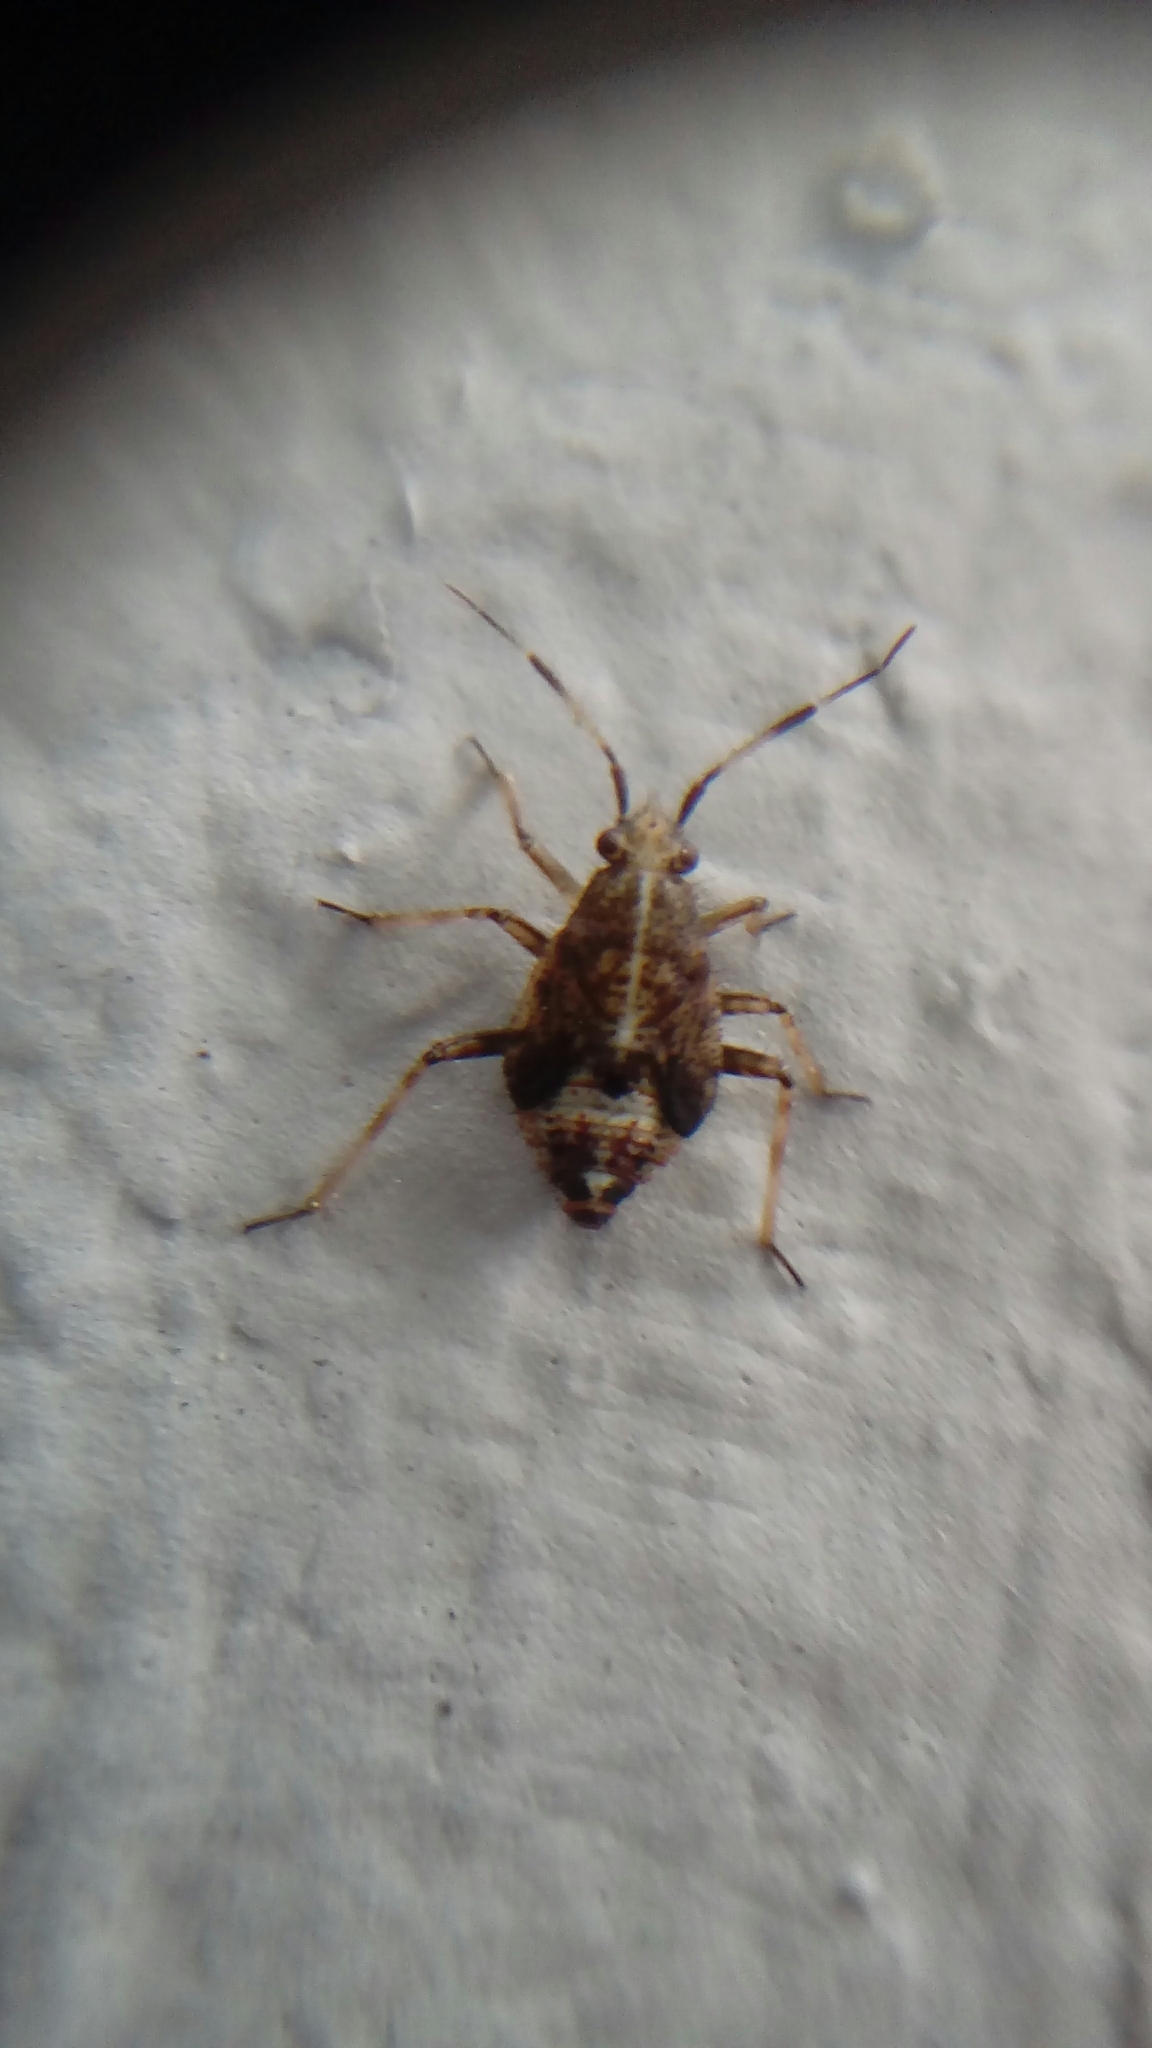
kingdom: Animalia
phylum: Arthropoda
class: Insecta
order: Hemiptera
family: Miridae
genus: Deraeocoris
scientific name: Deraeocoris flavilinea
